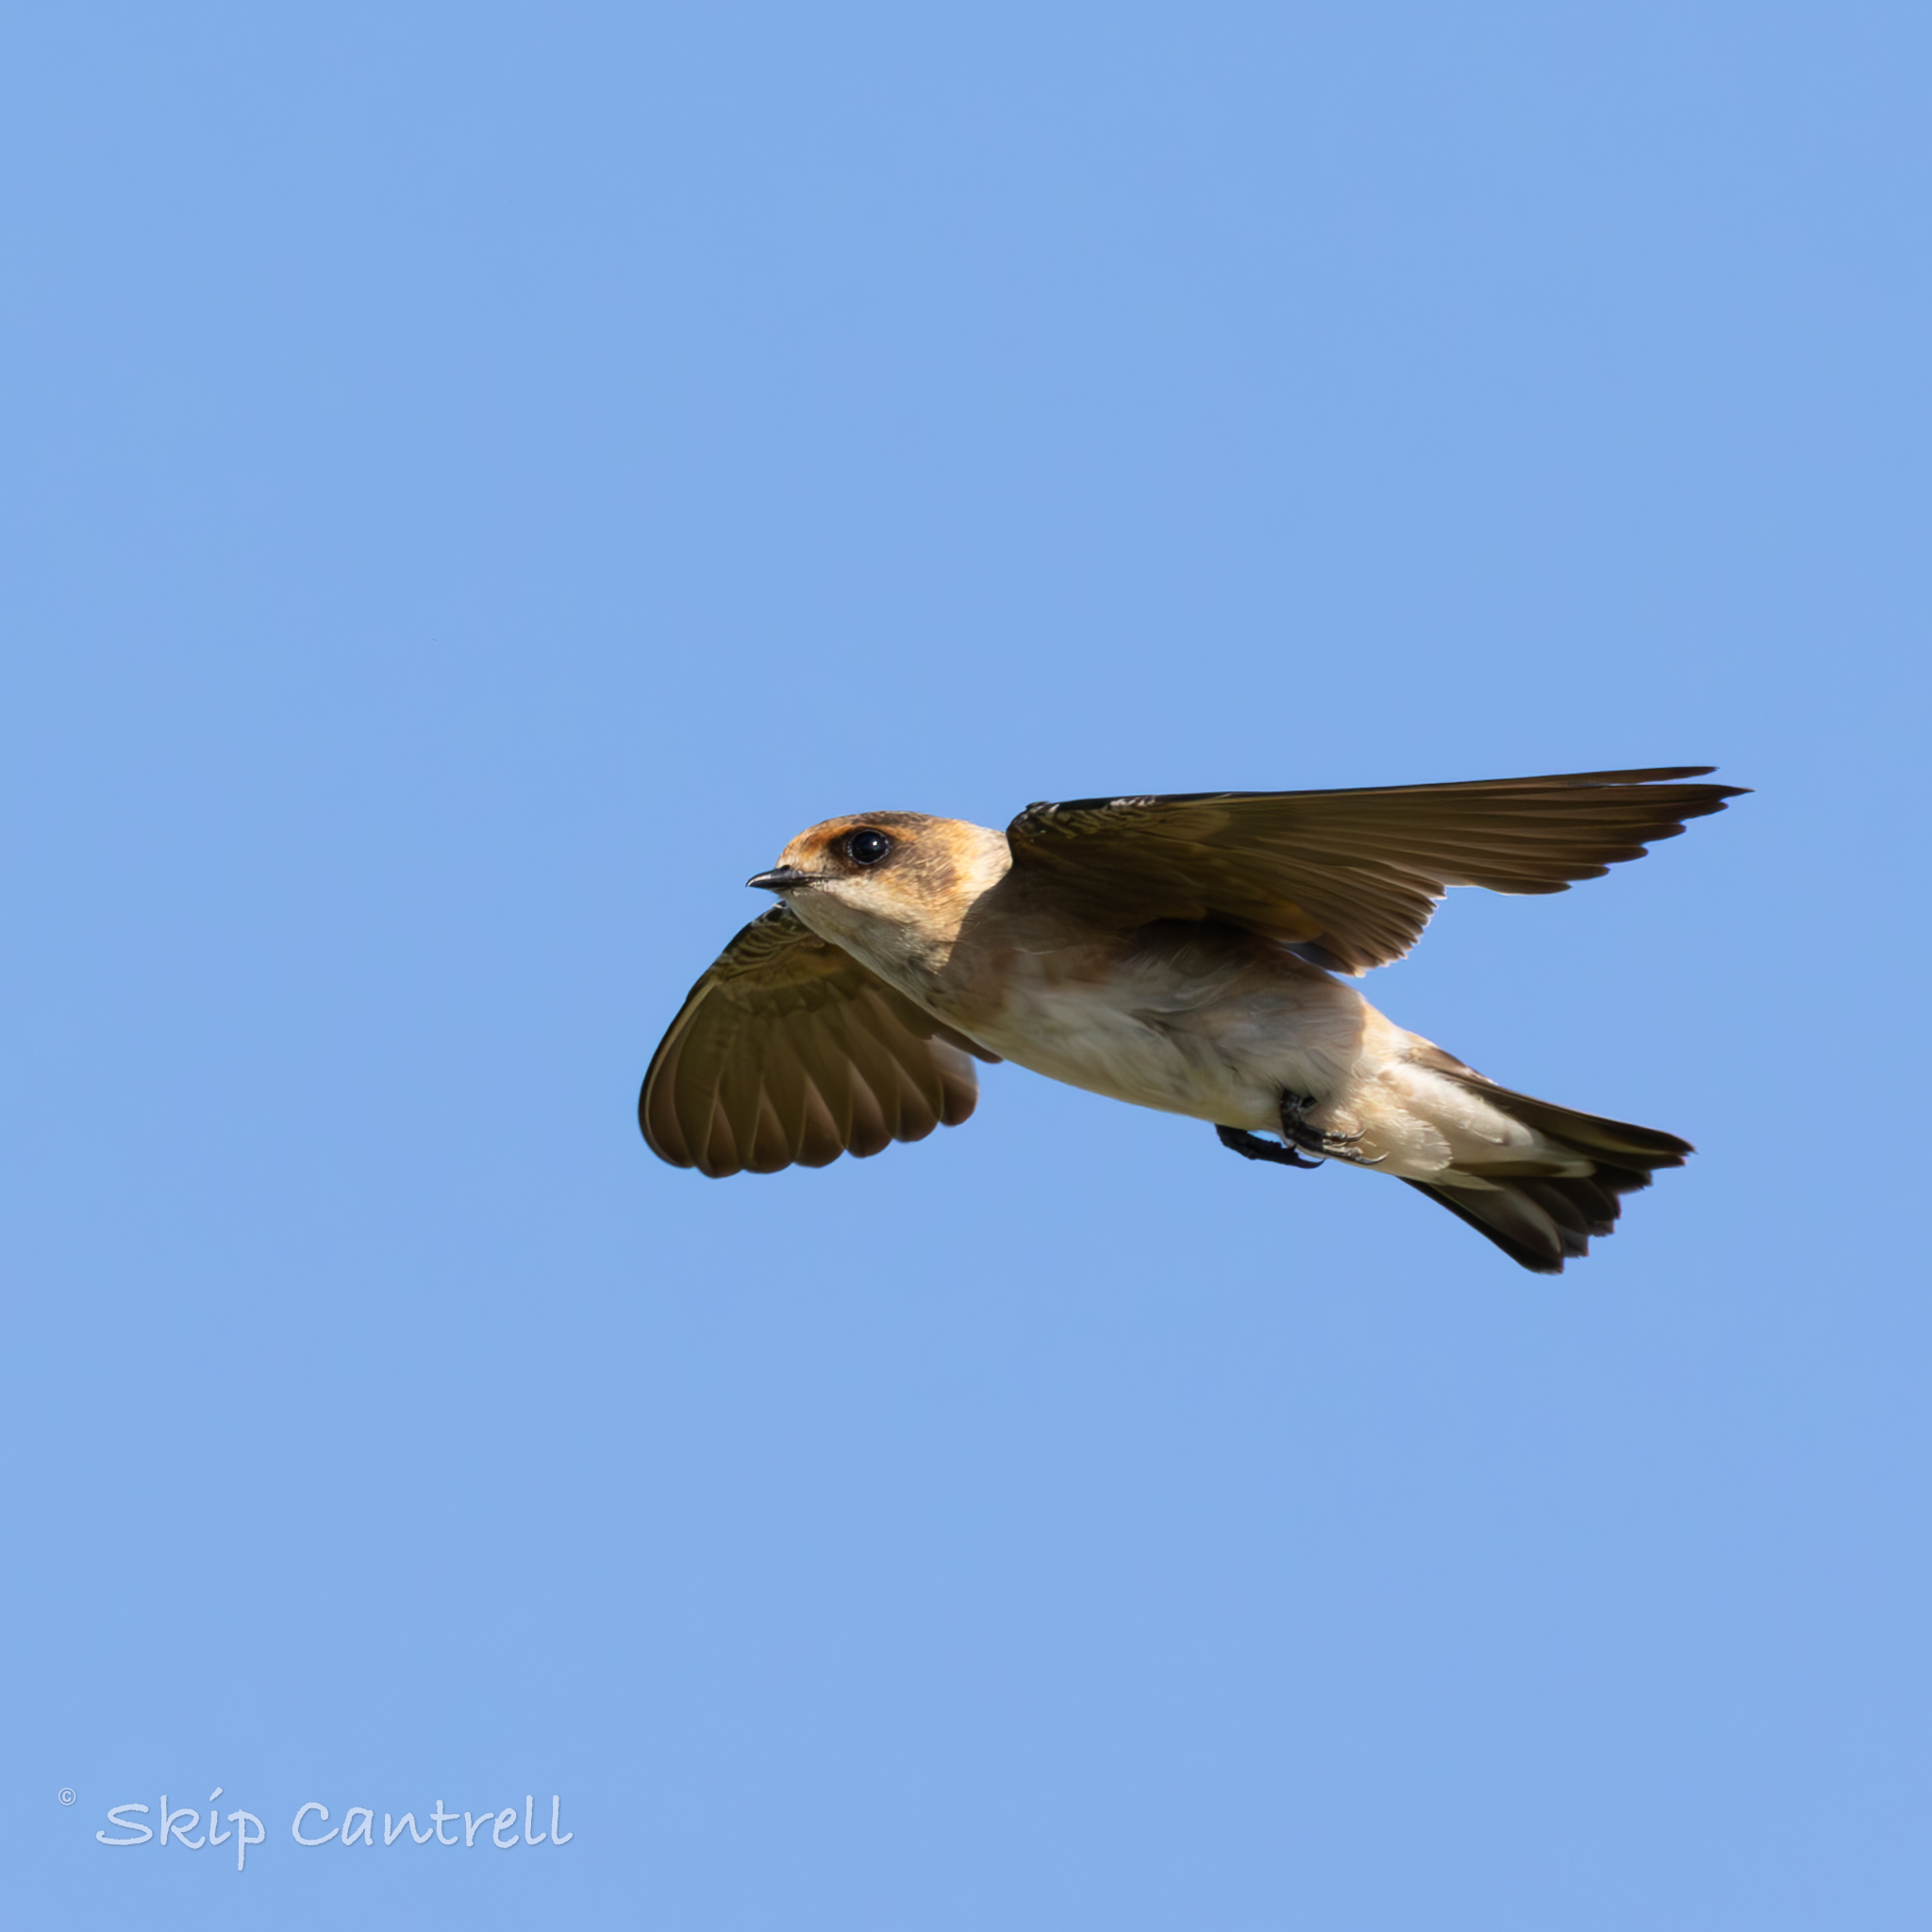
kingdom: Animalia
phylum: Chordata
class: Aves
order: Passeriformes
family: Hirundinidae
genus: Petrochelidon
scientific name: Petrochelidon fulva
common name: Cave swallow
